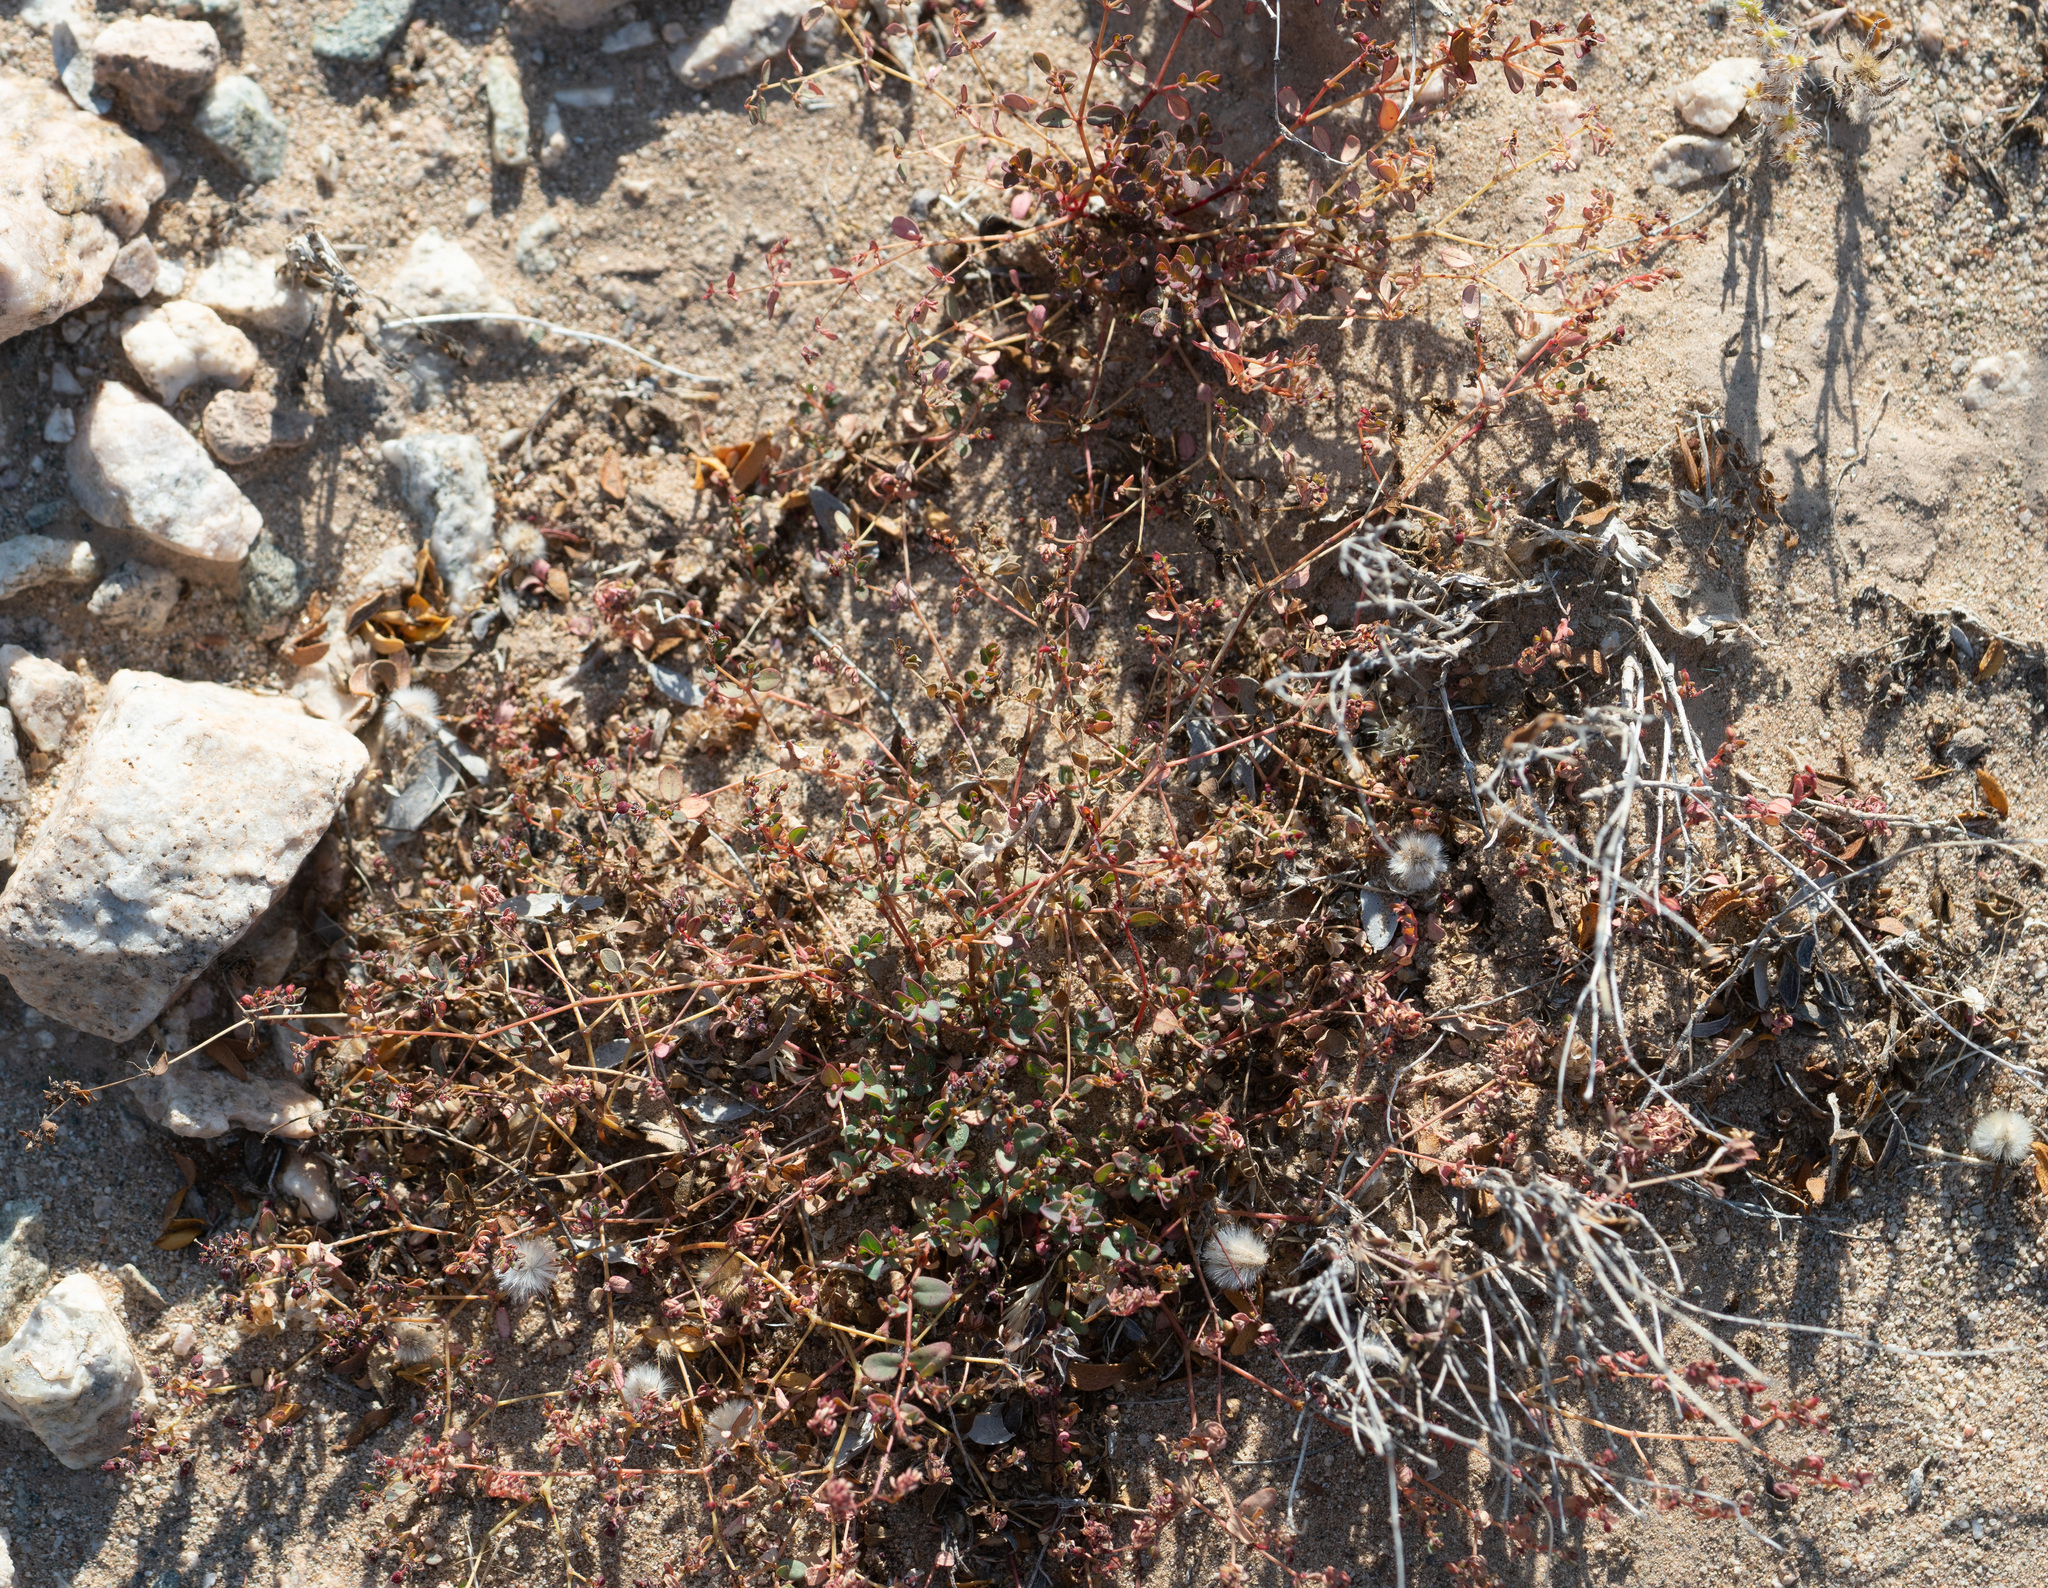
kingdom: Plantae
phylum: Tracheophyta
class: Magnoliopsida
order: Malpighiales
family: Euphorbiaceae
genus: Euphorbia
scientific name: Euphorbia polycarpa
